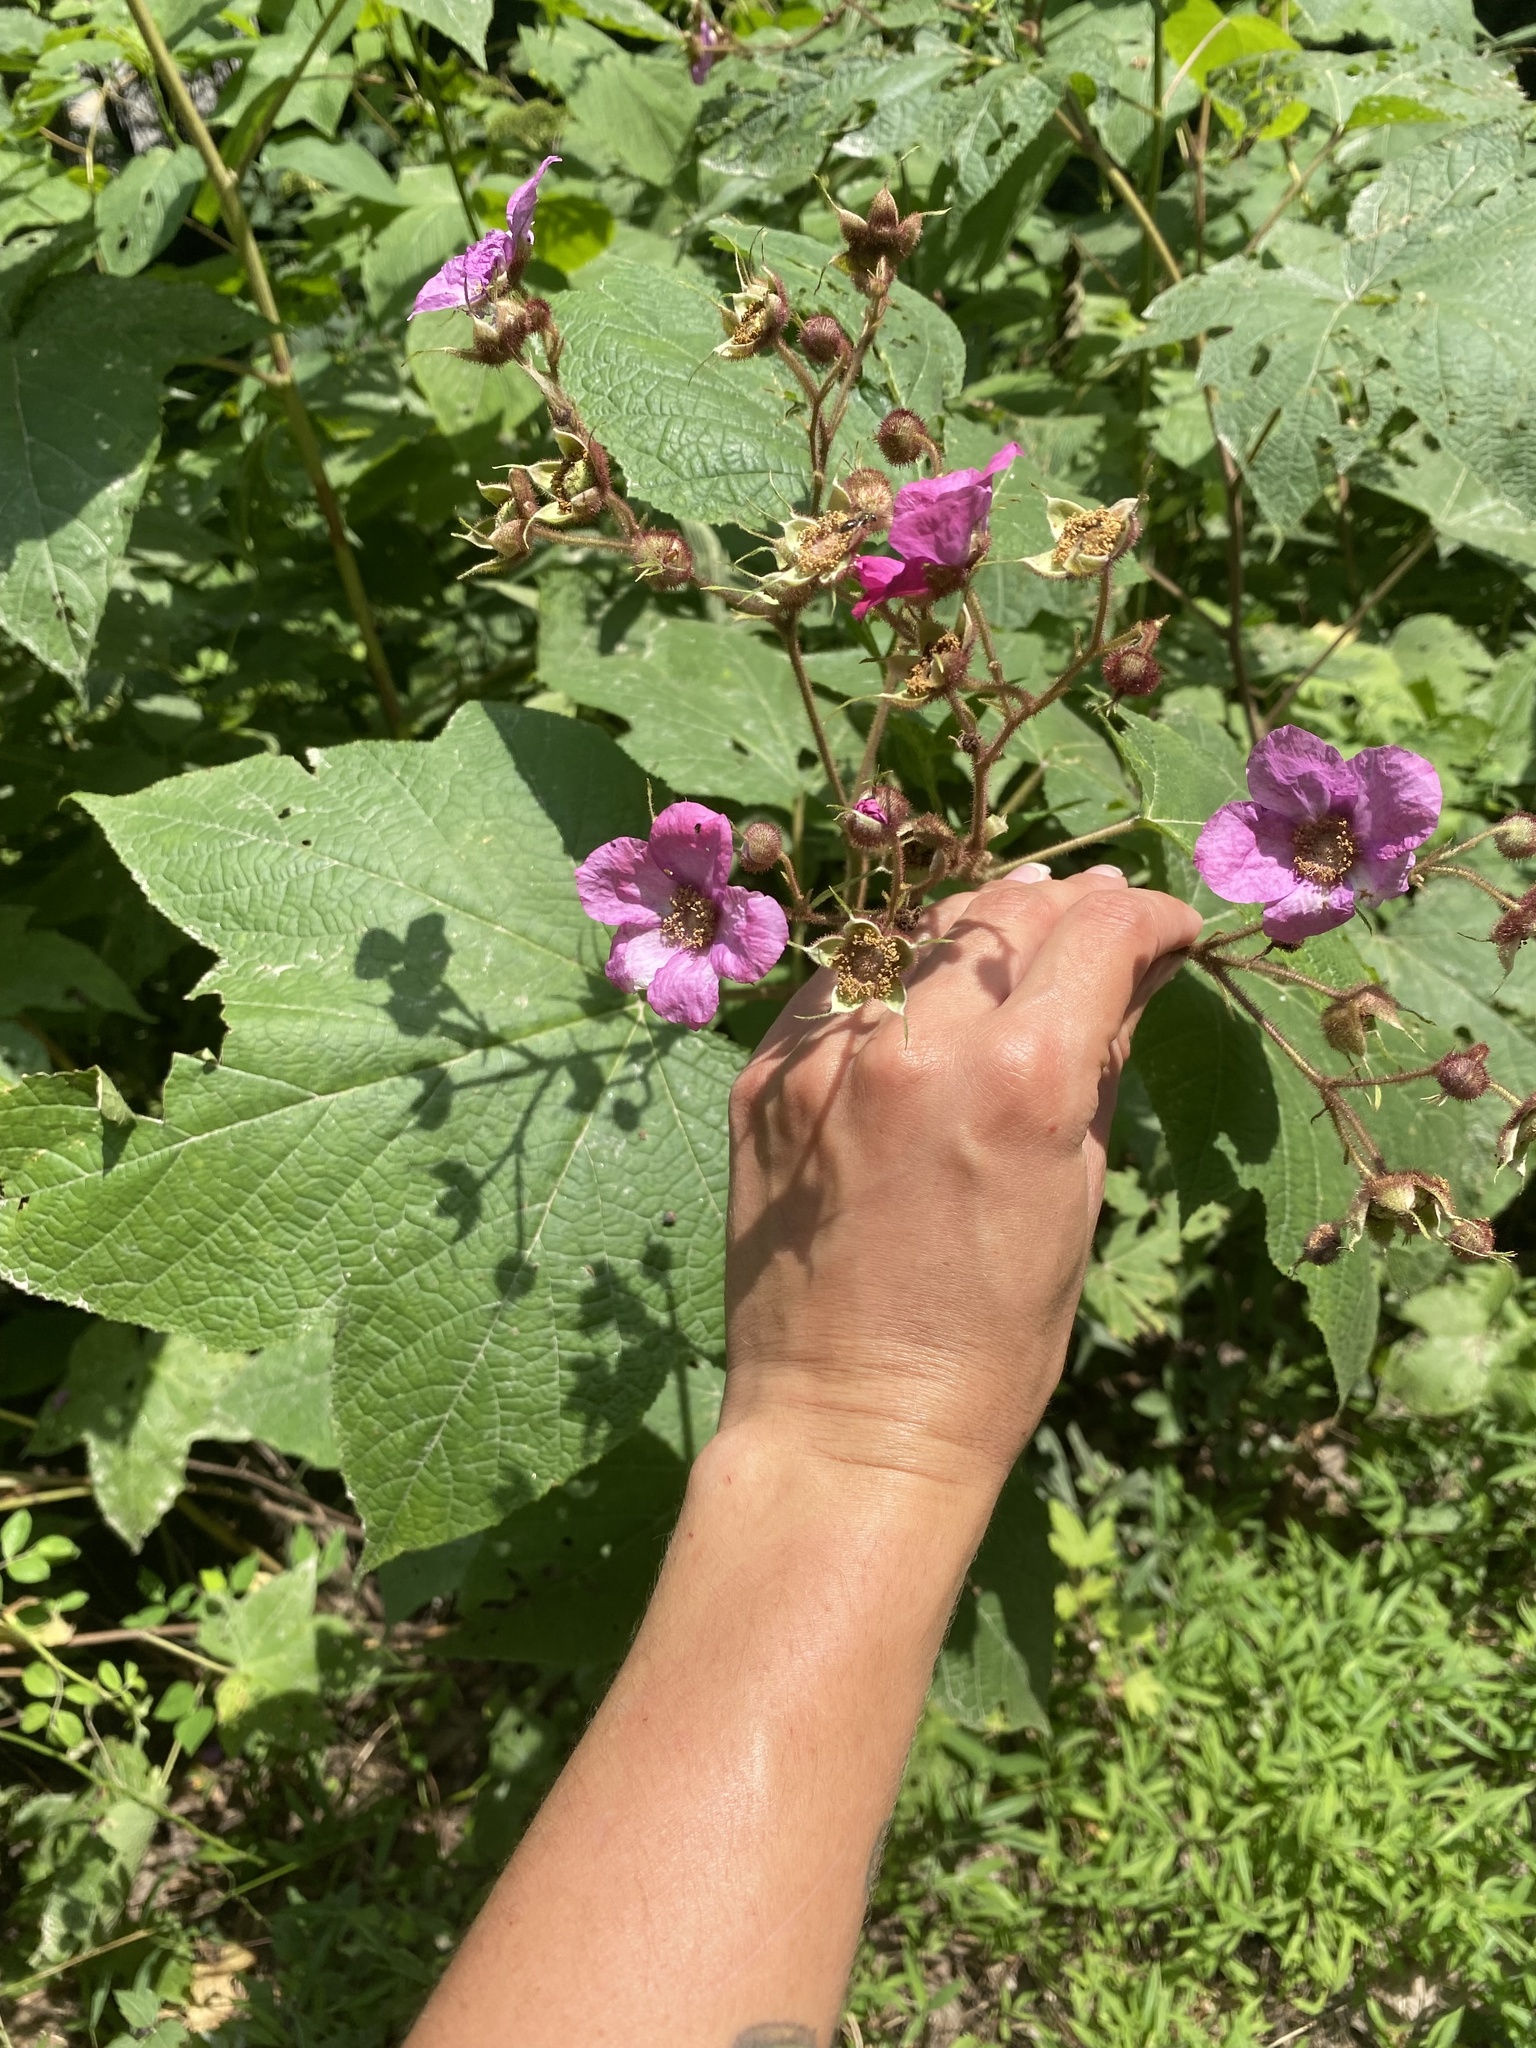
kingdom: Plantae
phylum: Tracheophyta
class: Magnoliopsida
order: Rosales
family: Rosaceae
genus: Rubus
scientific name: Rubus odoratus
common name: Purple-flowered raspberry
